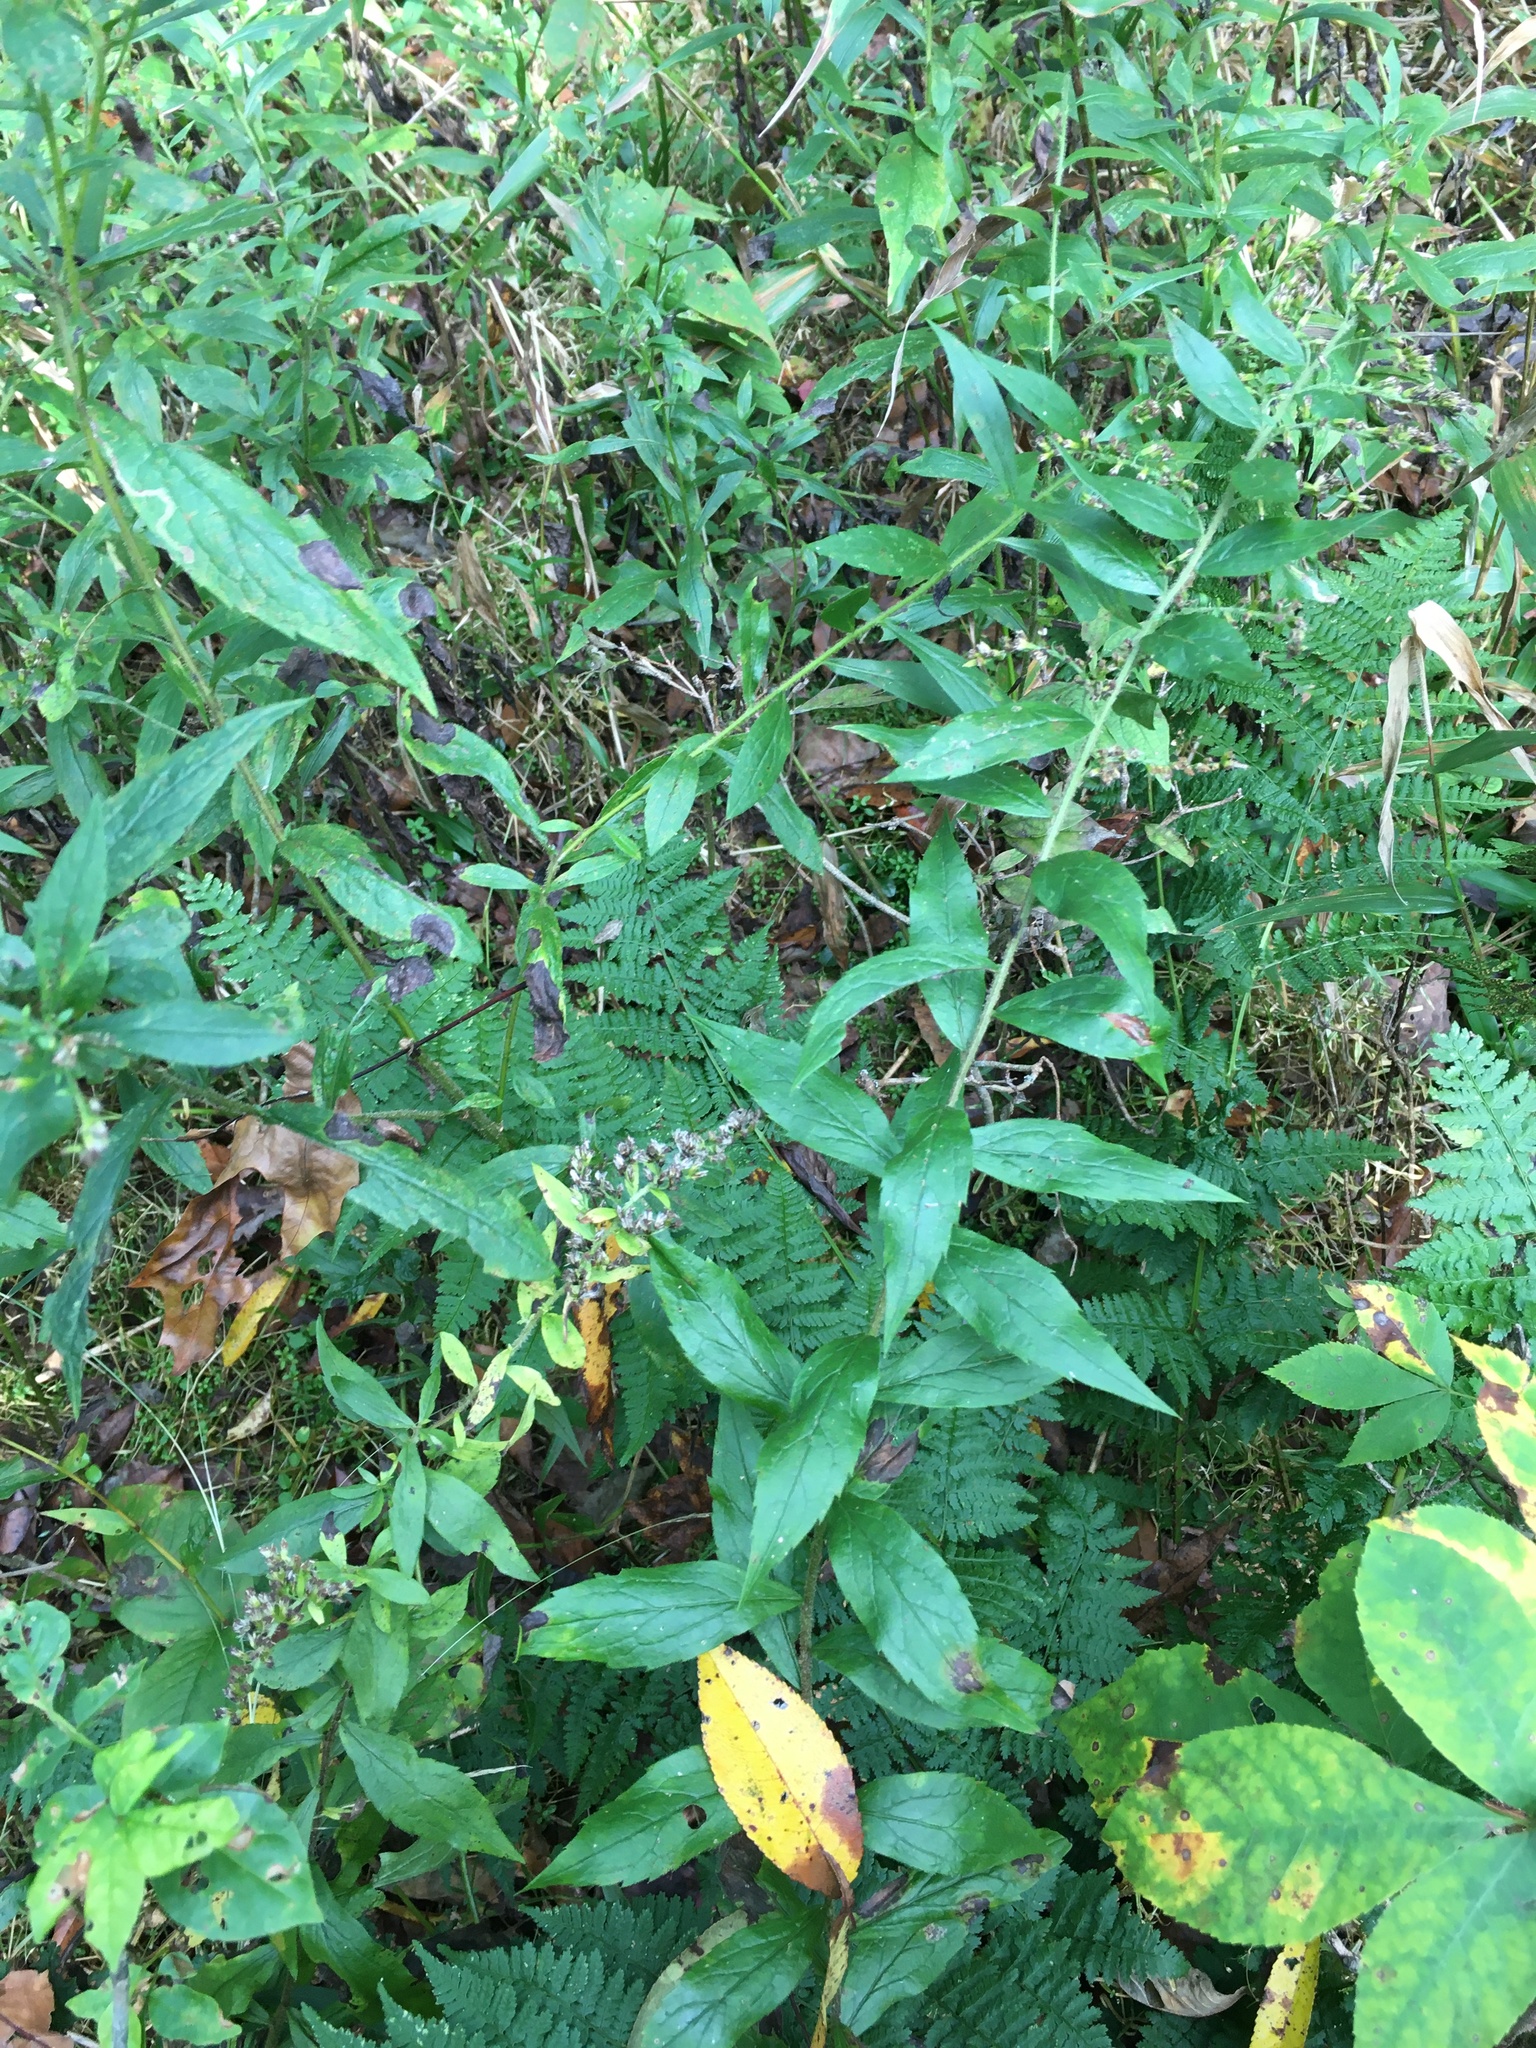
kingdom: Plantae
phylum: Tracheophyta
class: Magnoliopsida
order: Asterales
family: Asteraceae
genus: Solidago
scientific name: Solidago rugosa
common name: Rough-stemmed goldenrod
